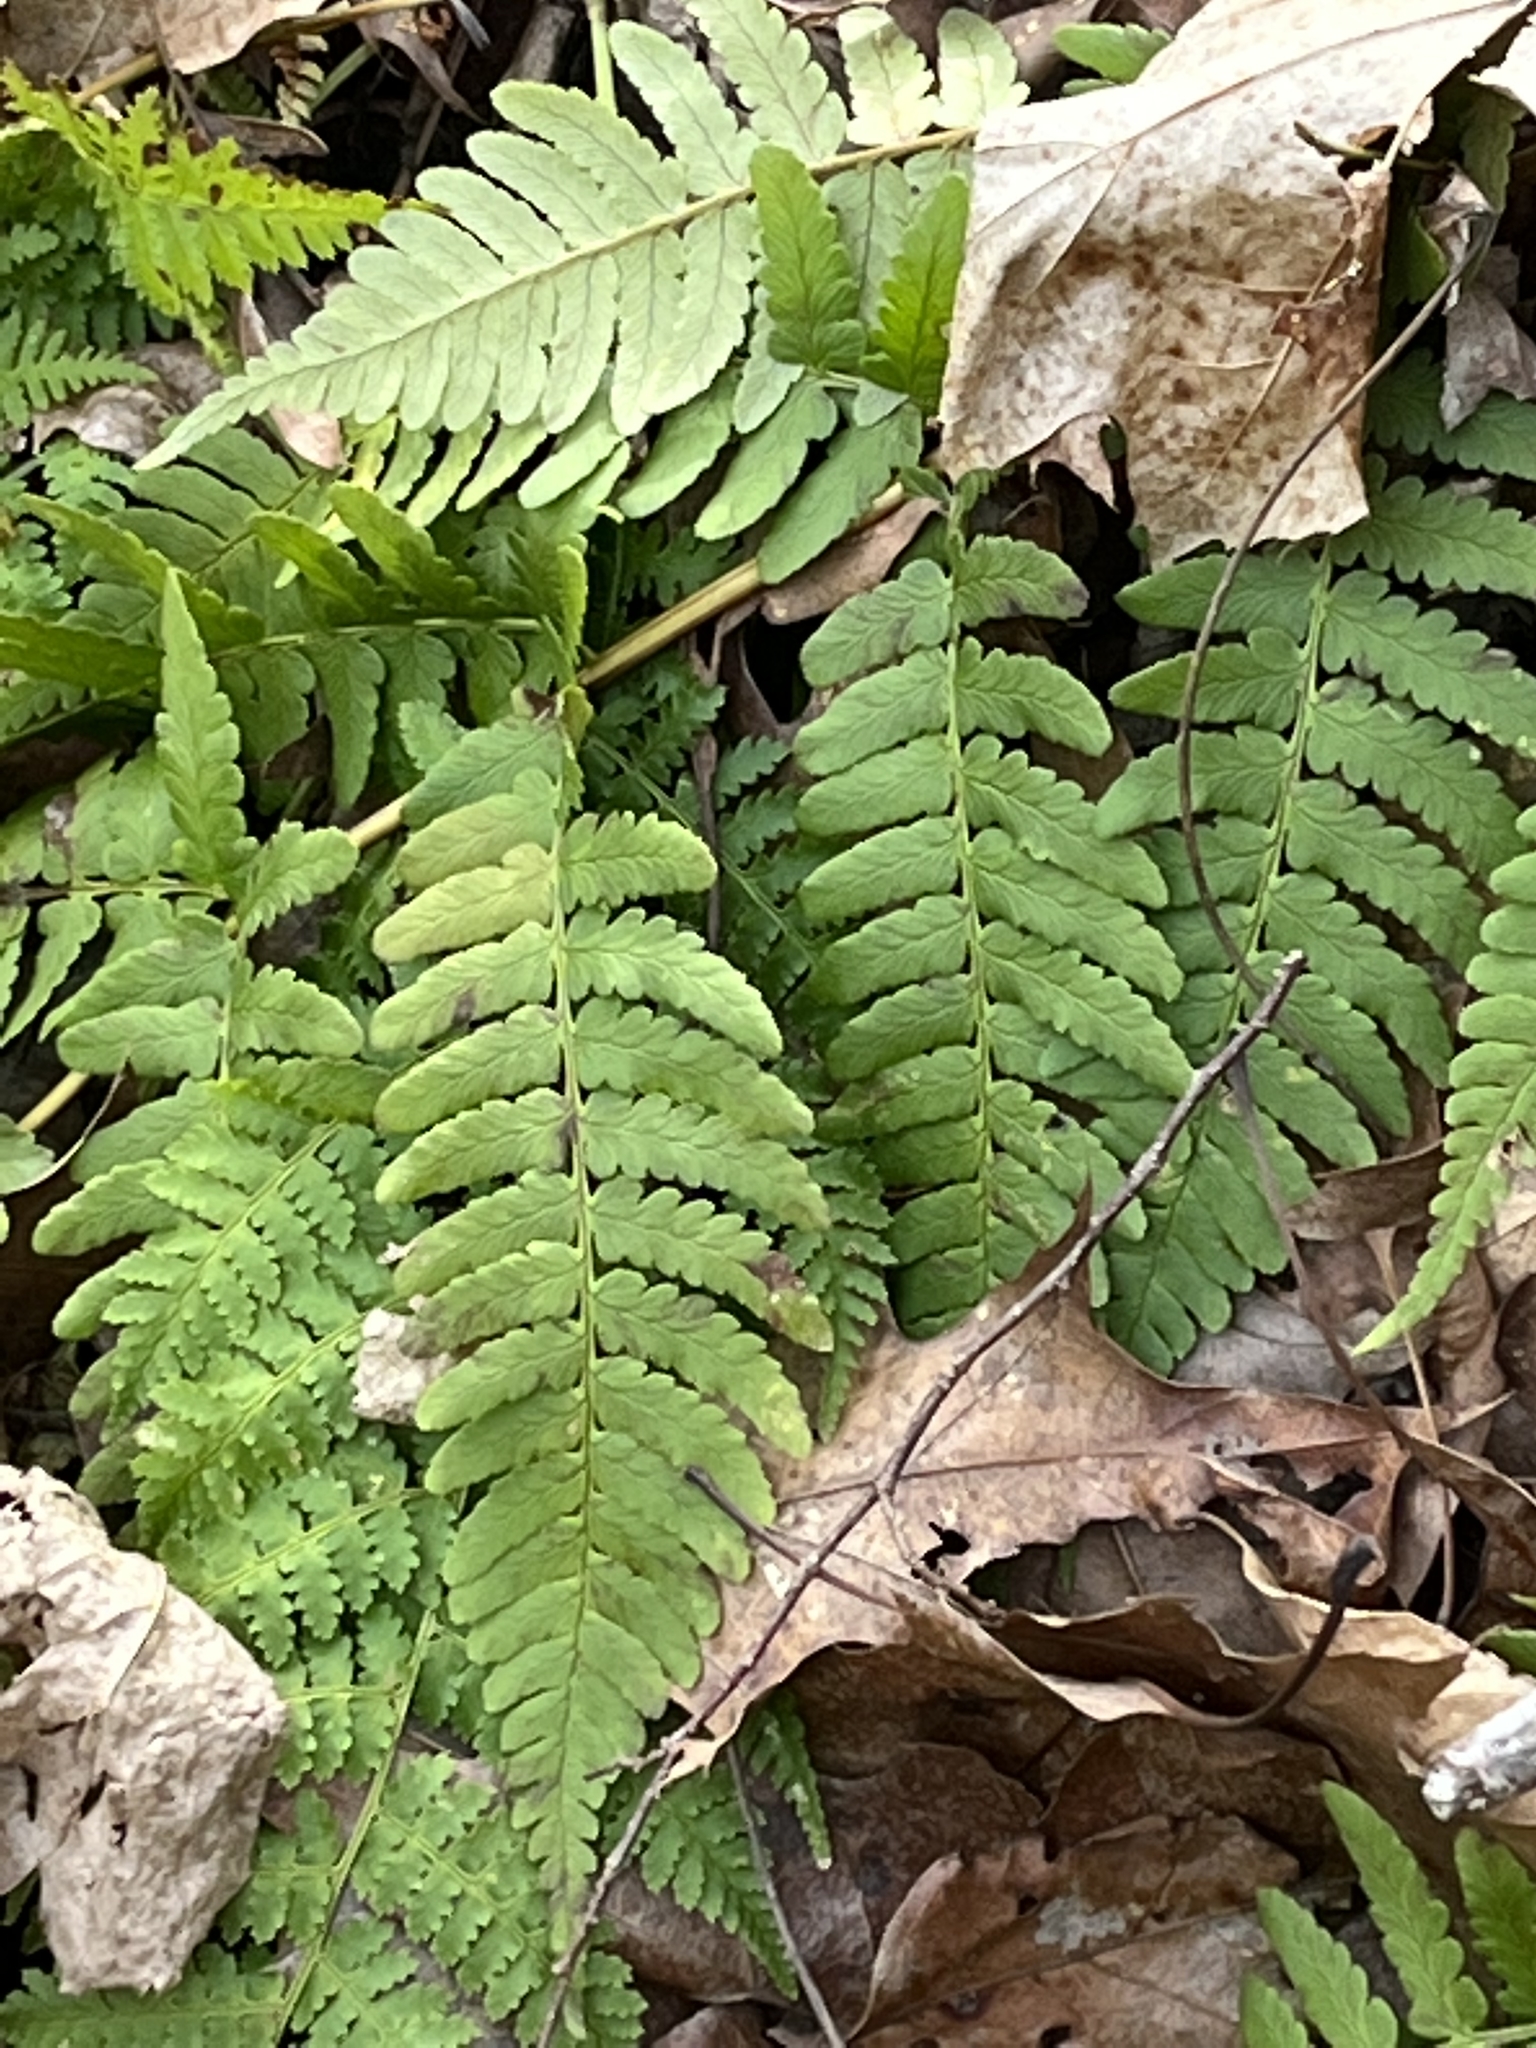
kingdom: Plantae
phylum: Tracheophyta
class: Polypodiopsida
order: Polypodiales
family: Dryopteridaceae
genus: Dryopteris
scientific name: Dryopteris marginalis
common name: Marginal wood fern
